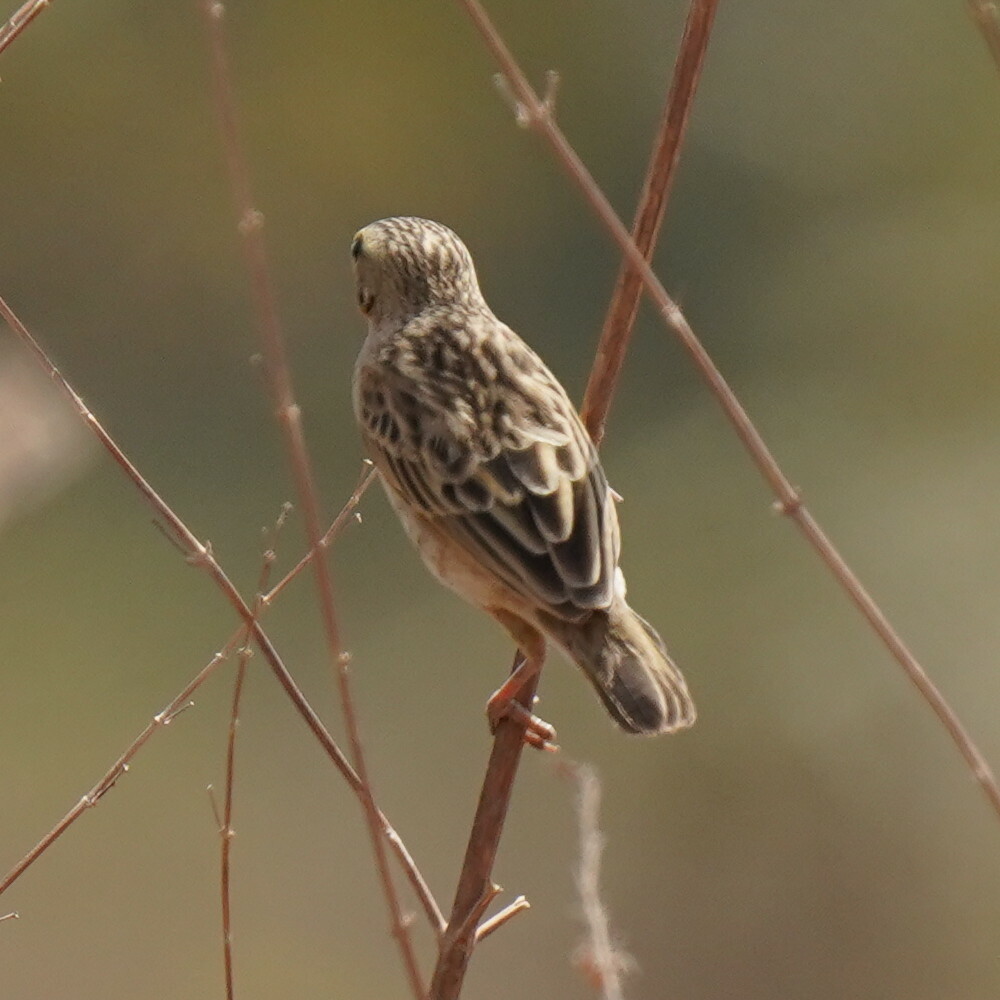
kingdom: Animalia
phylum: Chordata
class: Aves
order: Passeriformes
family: Ploceidae
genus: Quelea
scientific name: Quelea quelea
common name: Red-billed quelea
